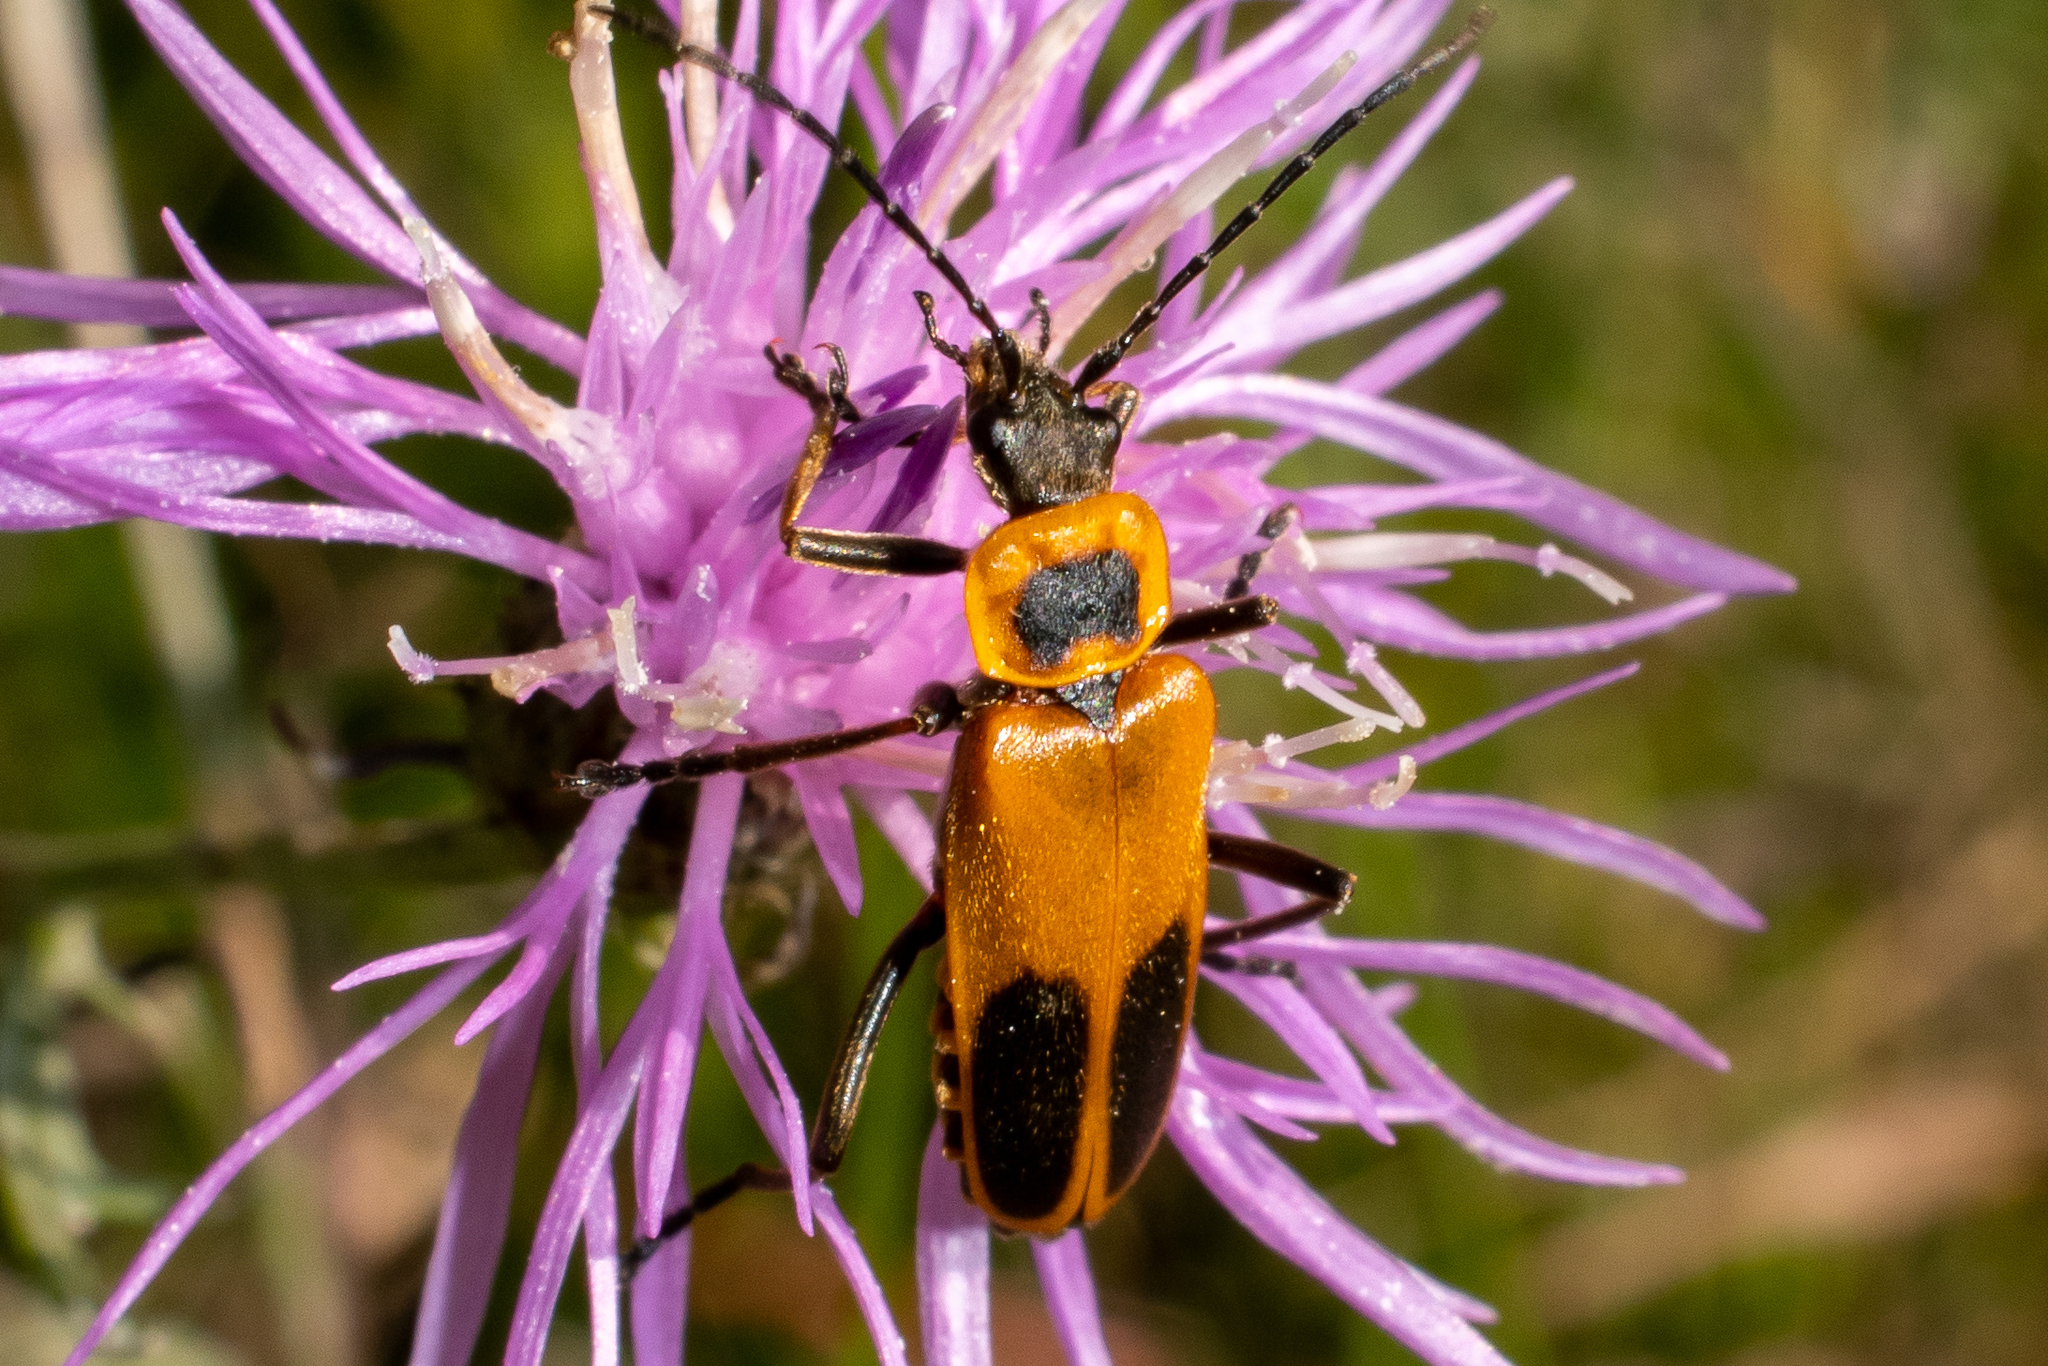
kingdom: Animalia
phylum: Arthropoda
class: Insecta
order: Coleoptera
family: Cantharidae
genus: Chauliognathus
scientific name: Chauliognathus pensylvanicus
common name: Goldenrod soldier beetle
